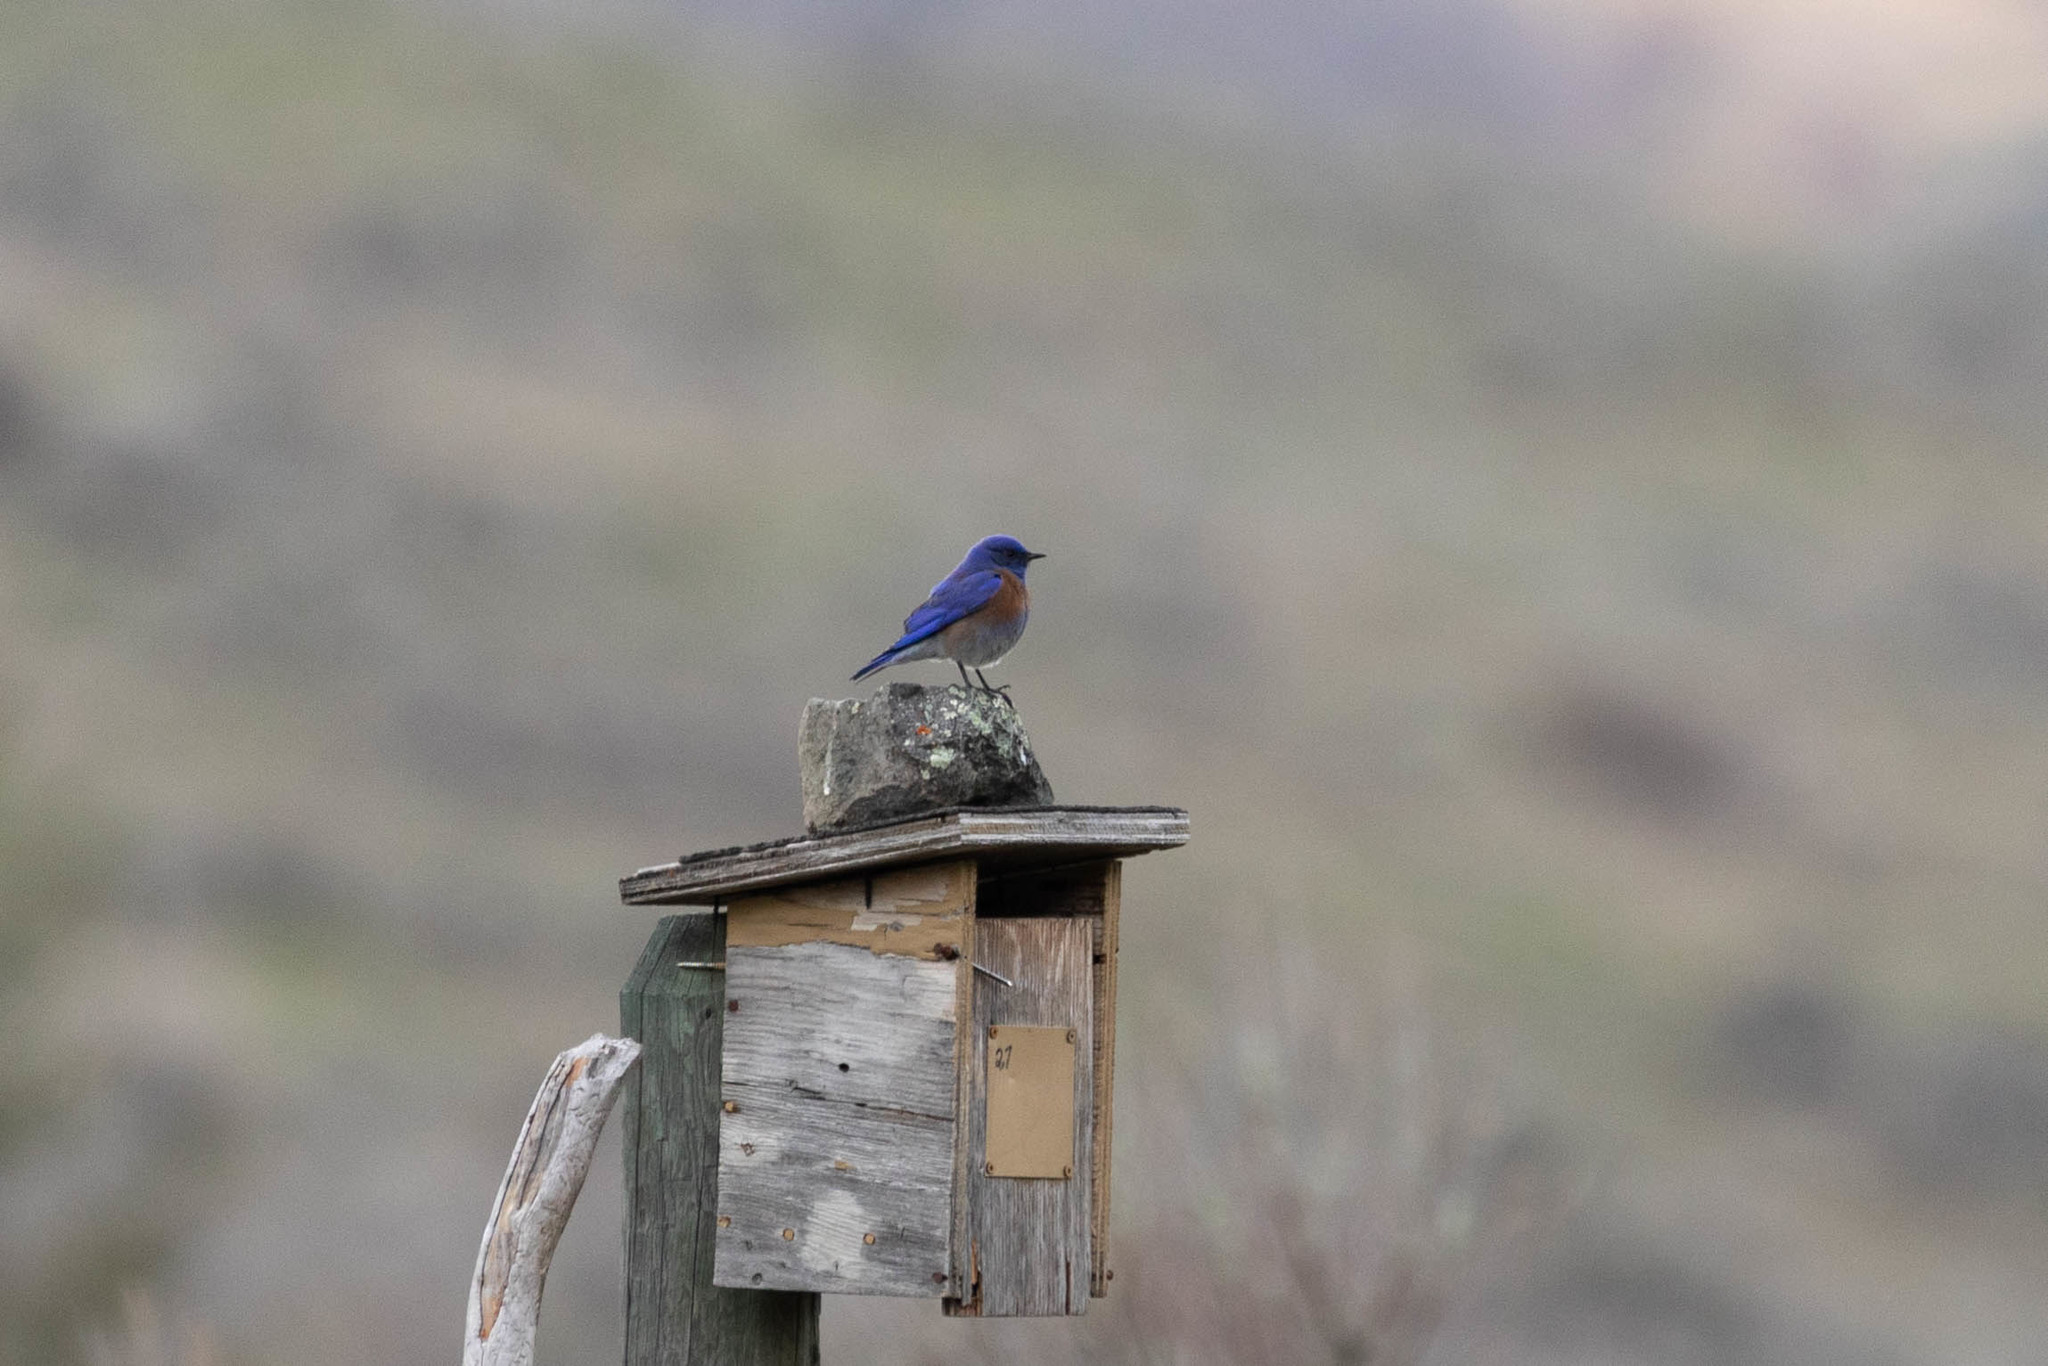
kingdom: Animalia
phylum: Chordata
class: Aves
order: Passeriformes
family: Turdidae
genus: Sialia
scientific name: Sialia mexicana
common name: Western bluebird
